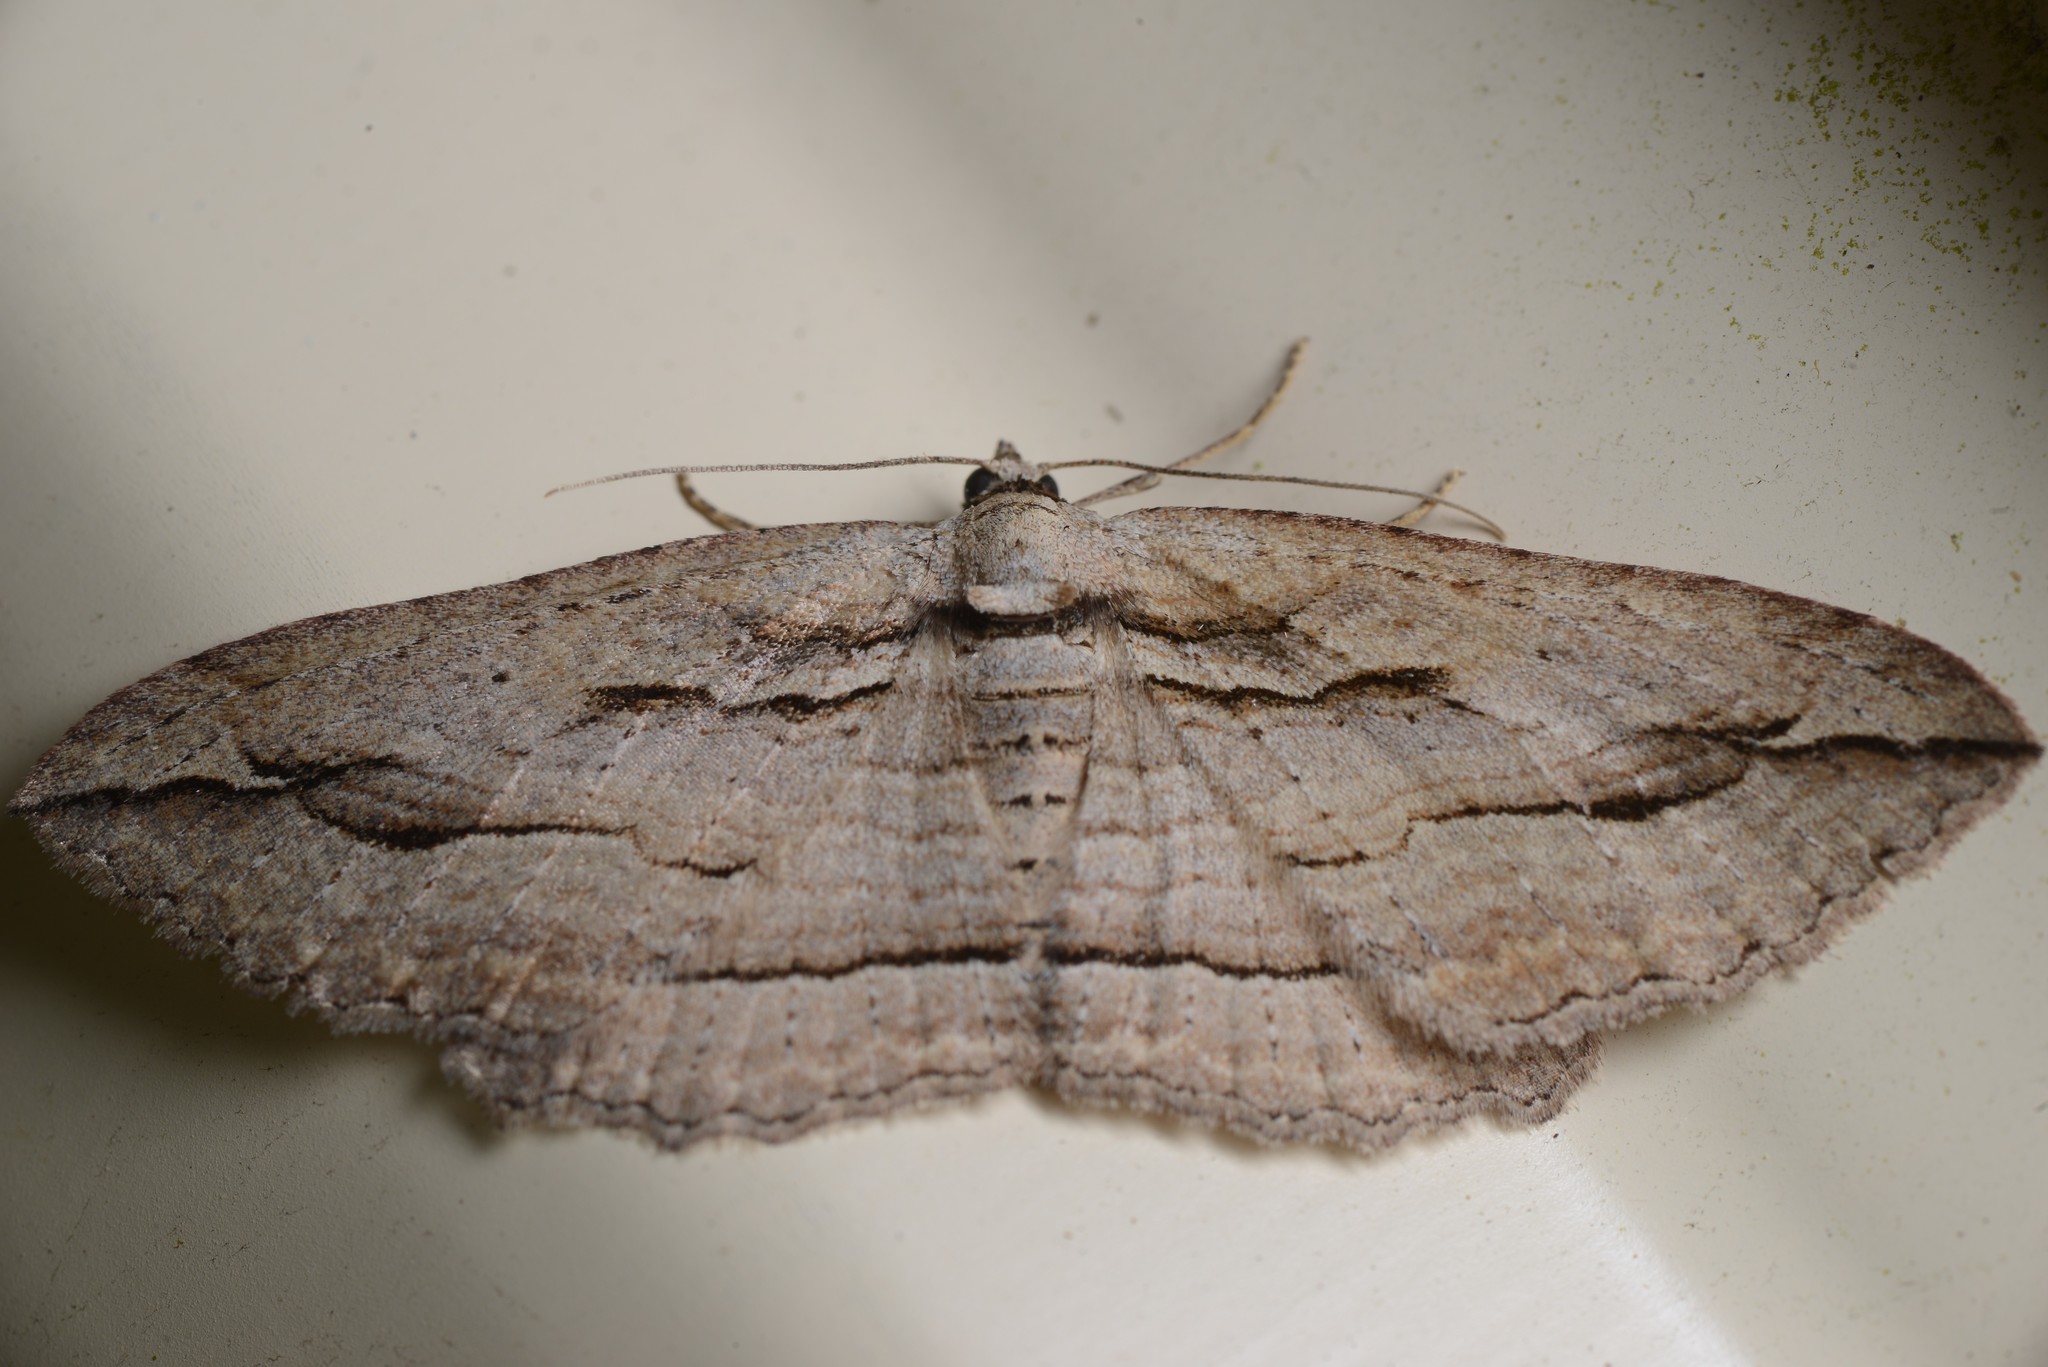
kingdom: Animalia
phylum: Arthropoda
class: Insecta
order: Lepidoptera
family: Geometridae
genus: Austrocidaria
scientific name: Austrocidaria gobiata
